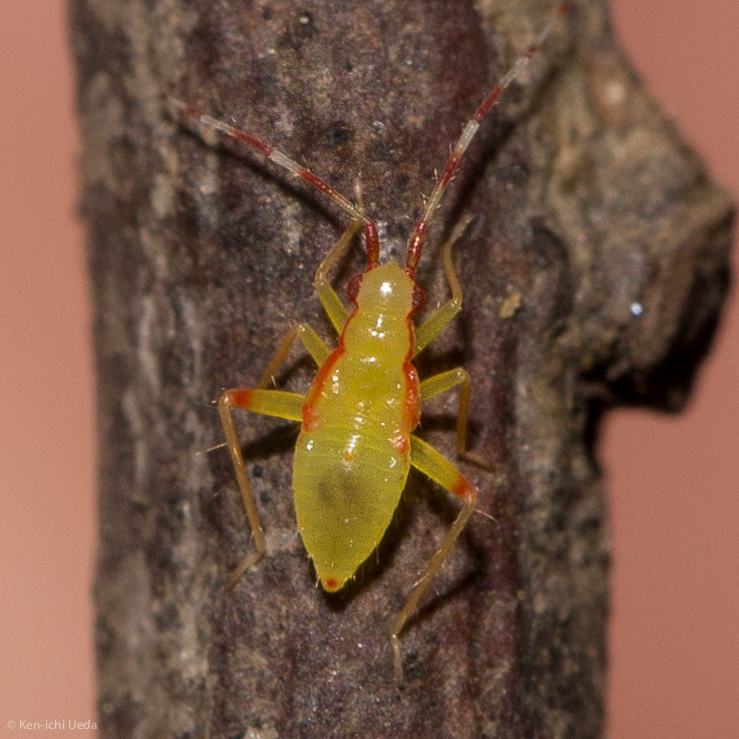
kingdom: Animalia
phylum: Arthropoda
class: Insecta
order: Hemiptera
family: Miridae
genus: Campyloneura
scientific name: Campyloneura virgula
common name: Predatory bug
